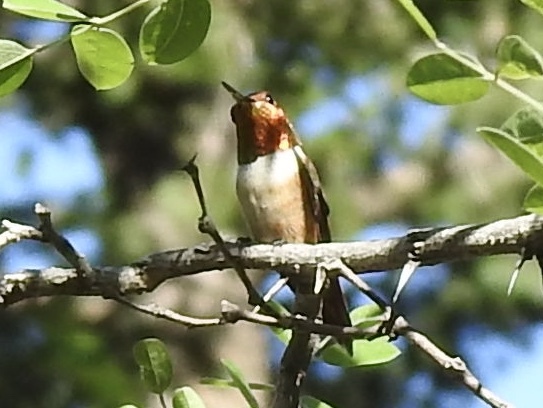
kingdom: Animalia
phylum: Chordata
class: Aves
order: Apodiformes
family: Trochilidae
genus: Selasphorus
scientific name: Selasphorus rufus
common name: Rufous hummingbird
